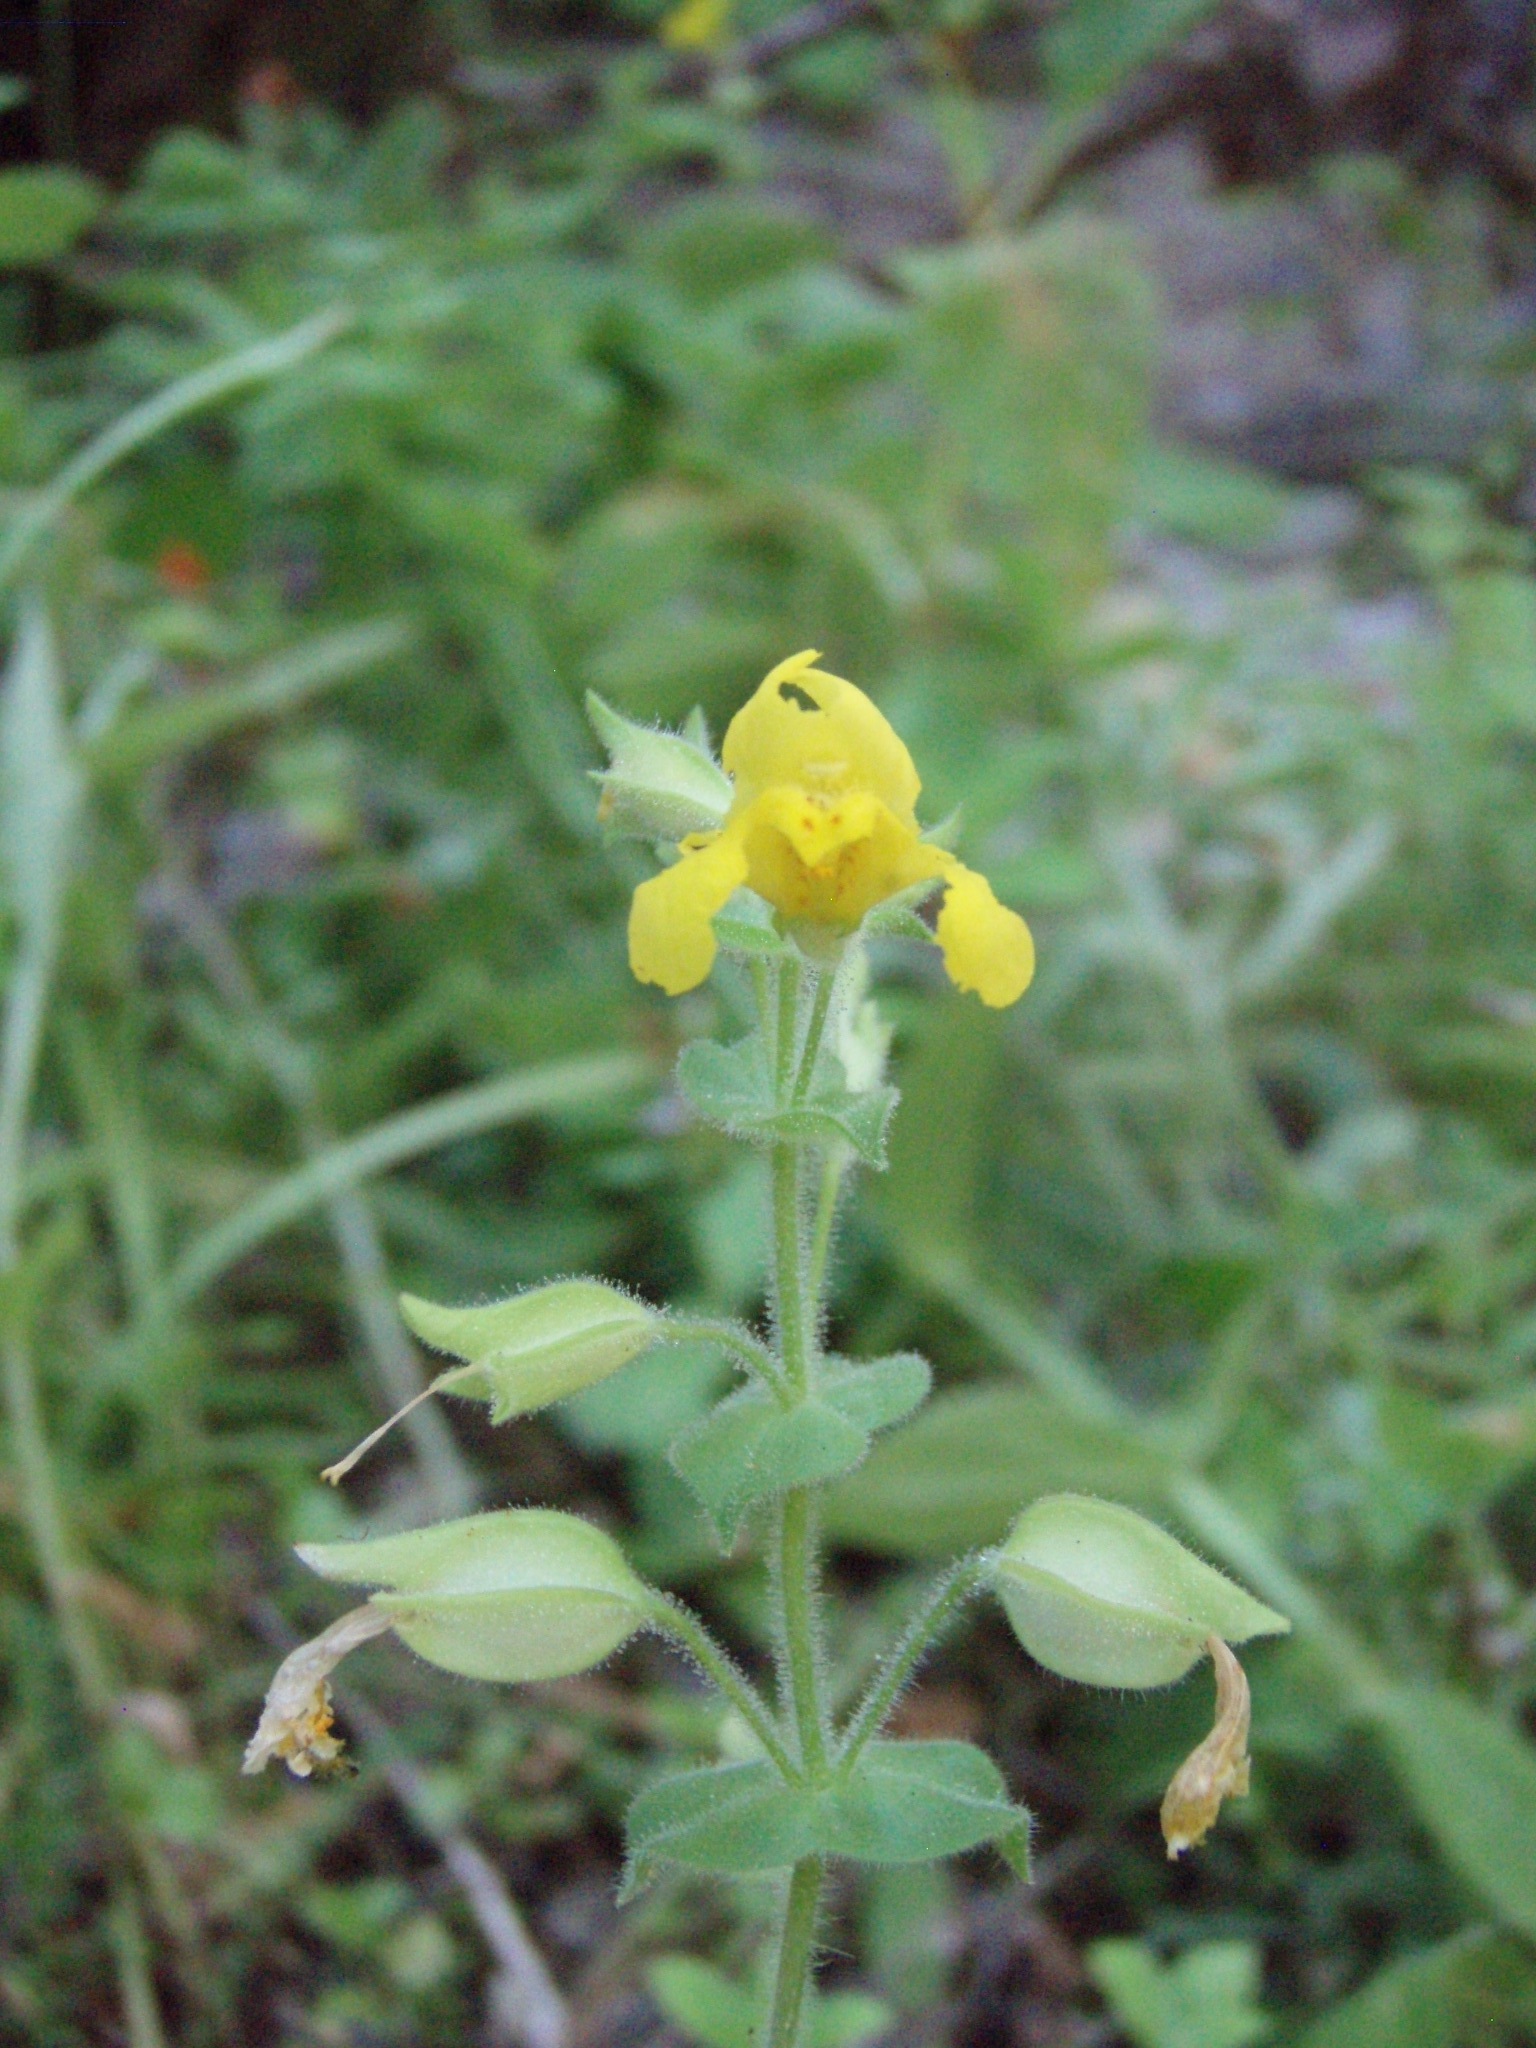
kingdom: Plantae
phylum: Tracheophyta
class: Magnoliopsida
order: Lamiales
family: Phrymaceae
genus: Erythranthe
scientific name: Erythranthe guttata
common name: Monkeyflower
